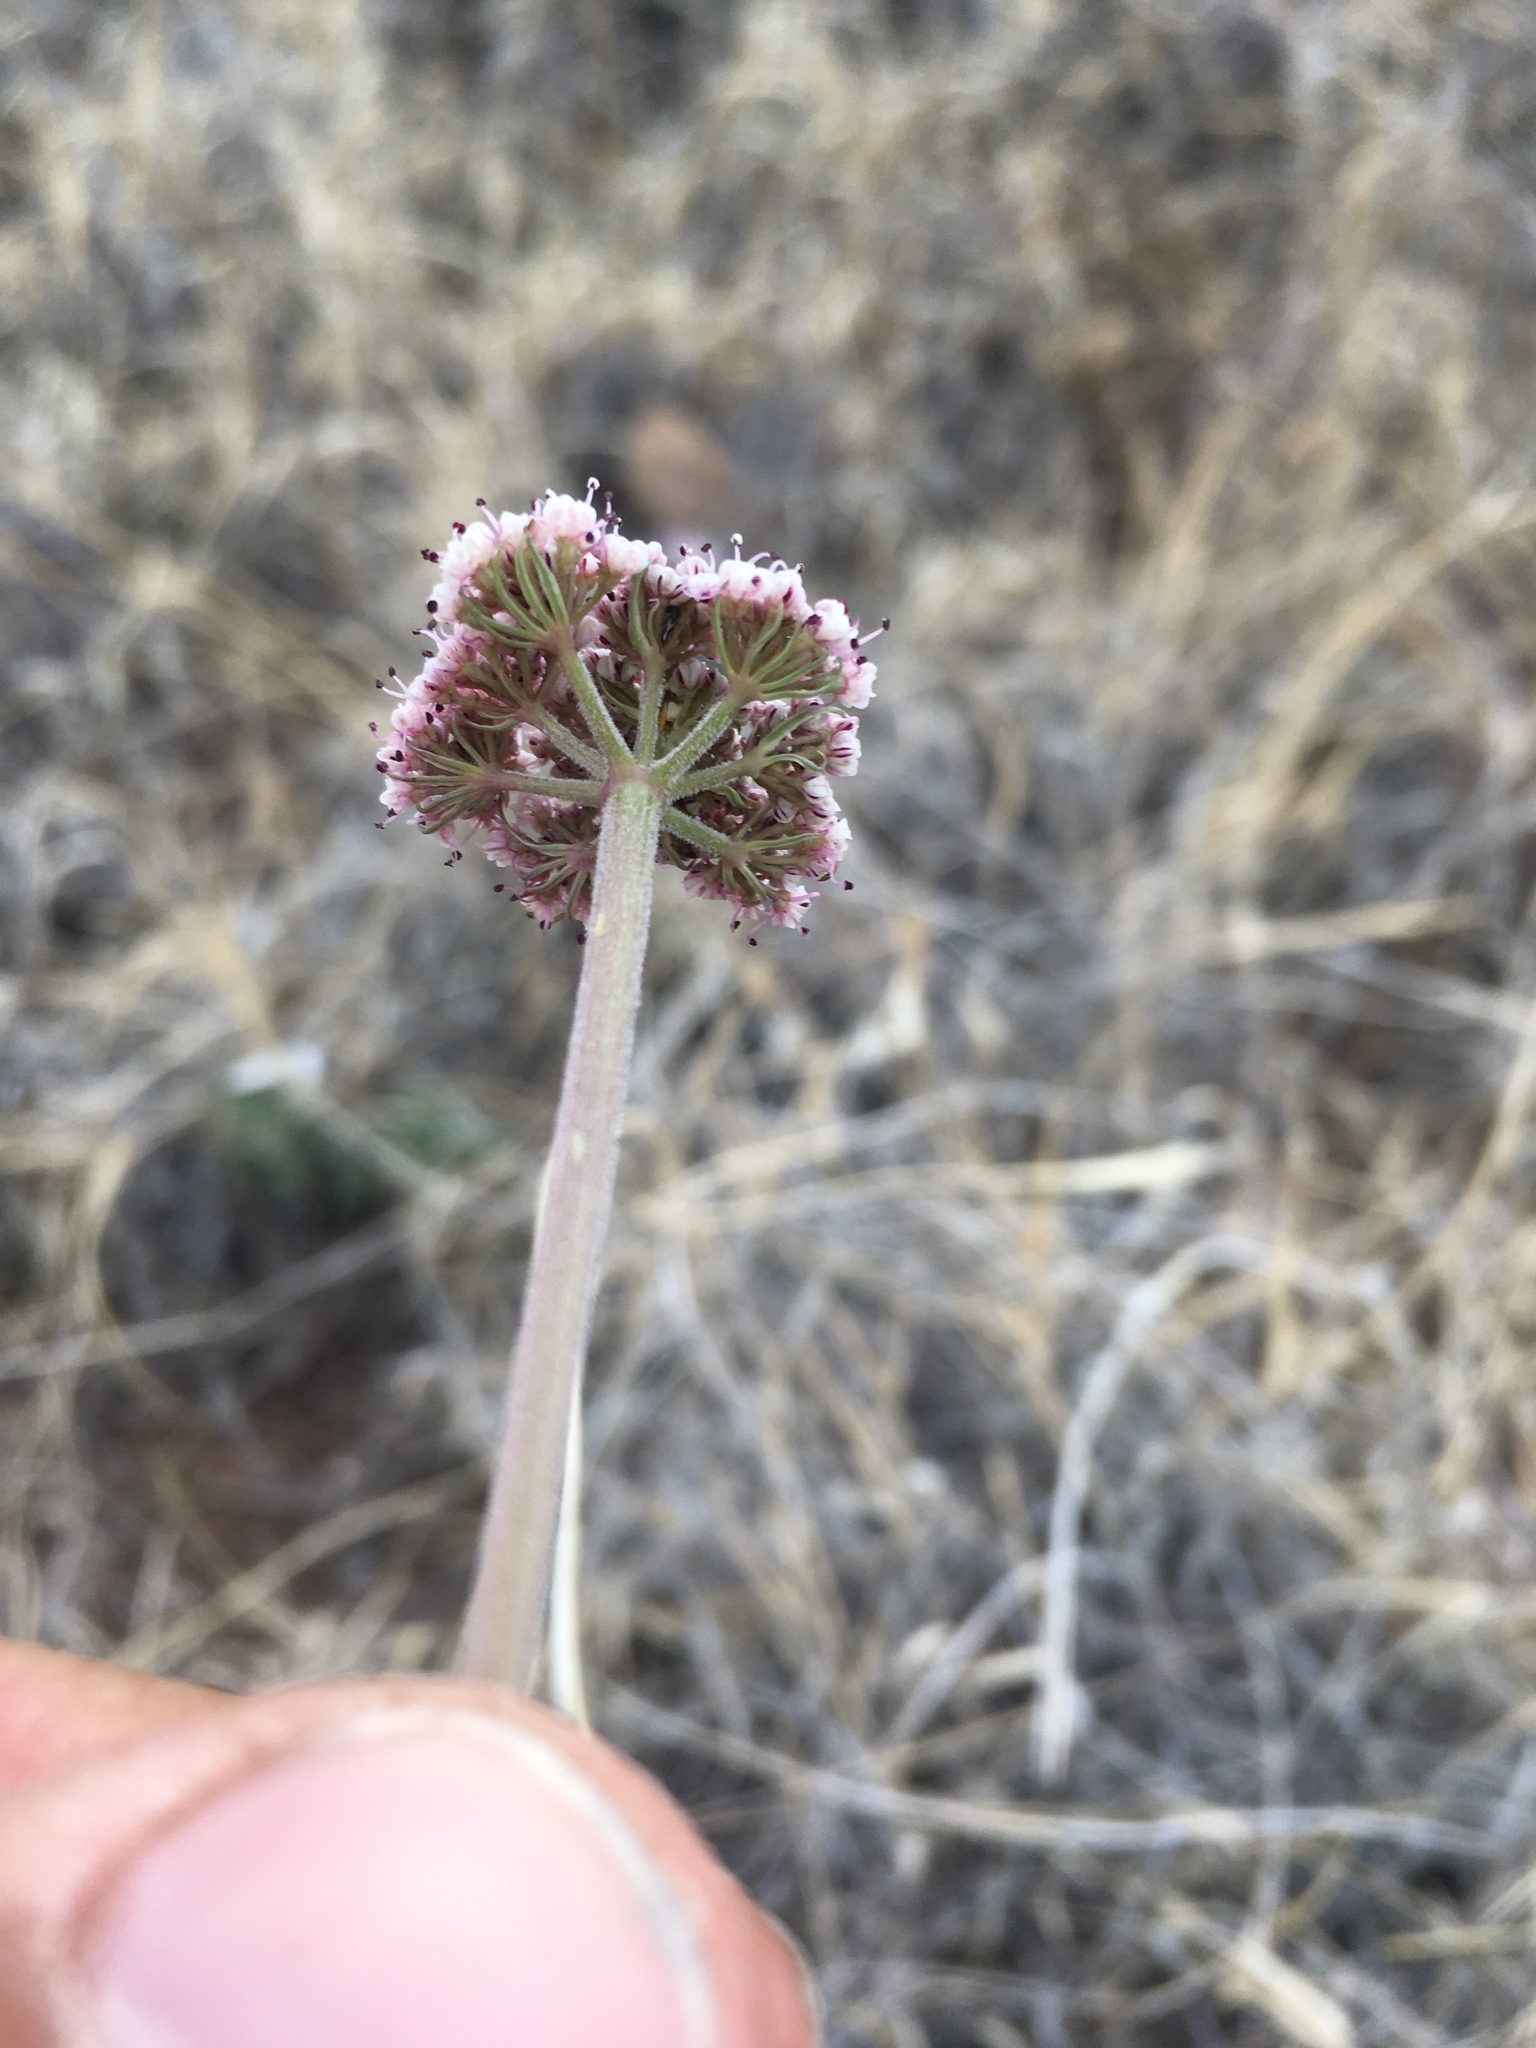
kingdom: Plantae
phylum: Tracheophyta
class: Magnoliopsida
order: Apiales
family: Apiaceae
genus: Lomatium
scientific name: Lomatium nevadense
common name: Nevada lomatium
